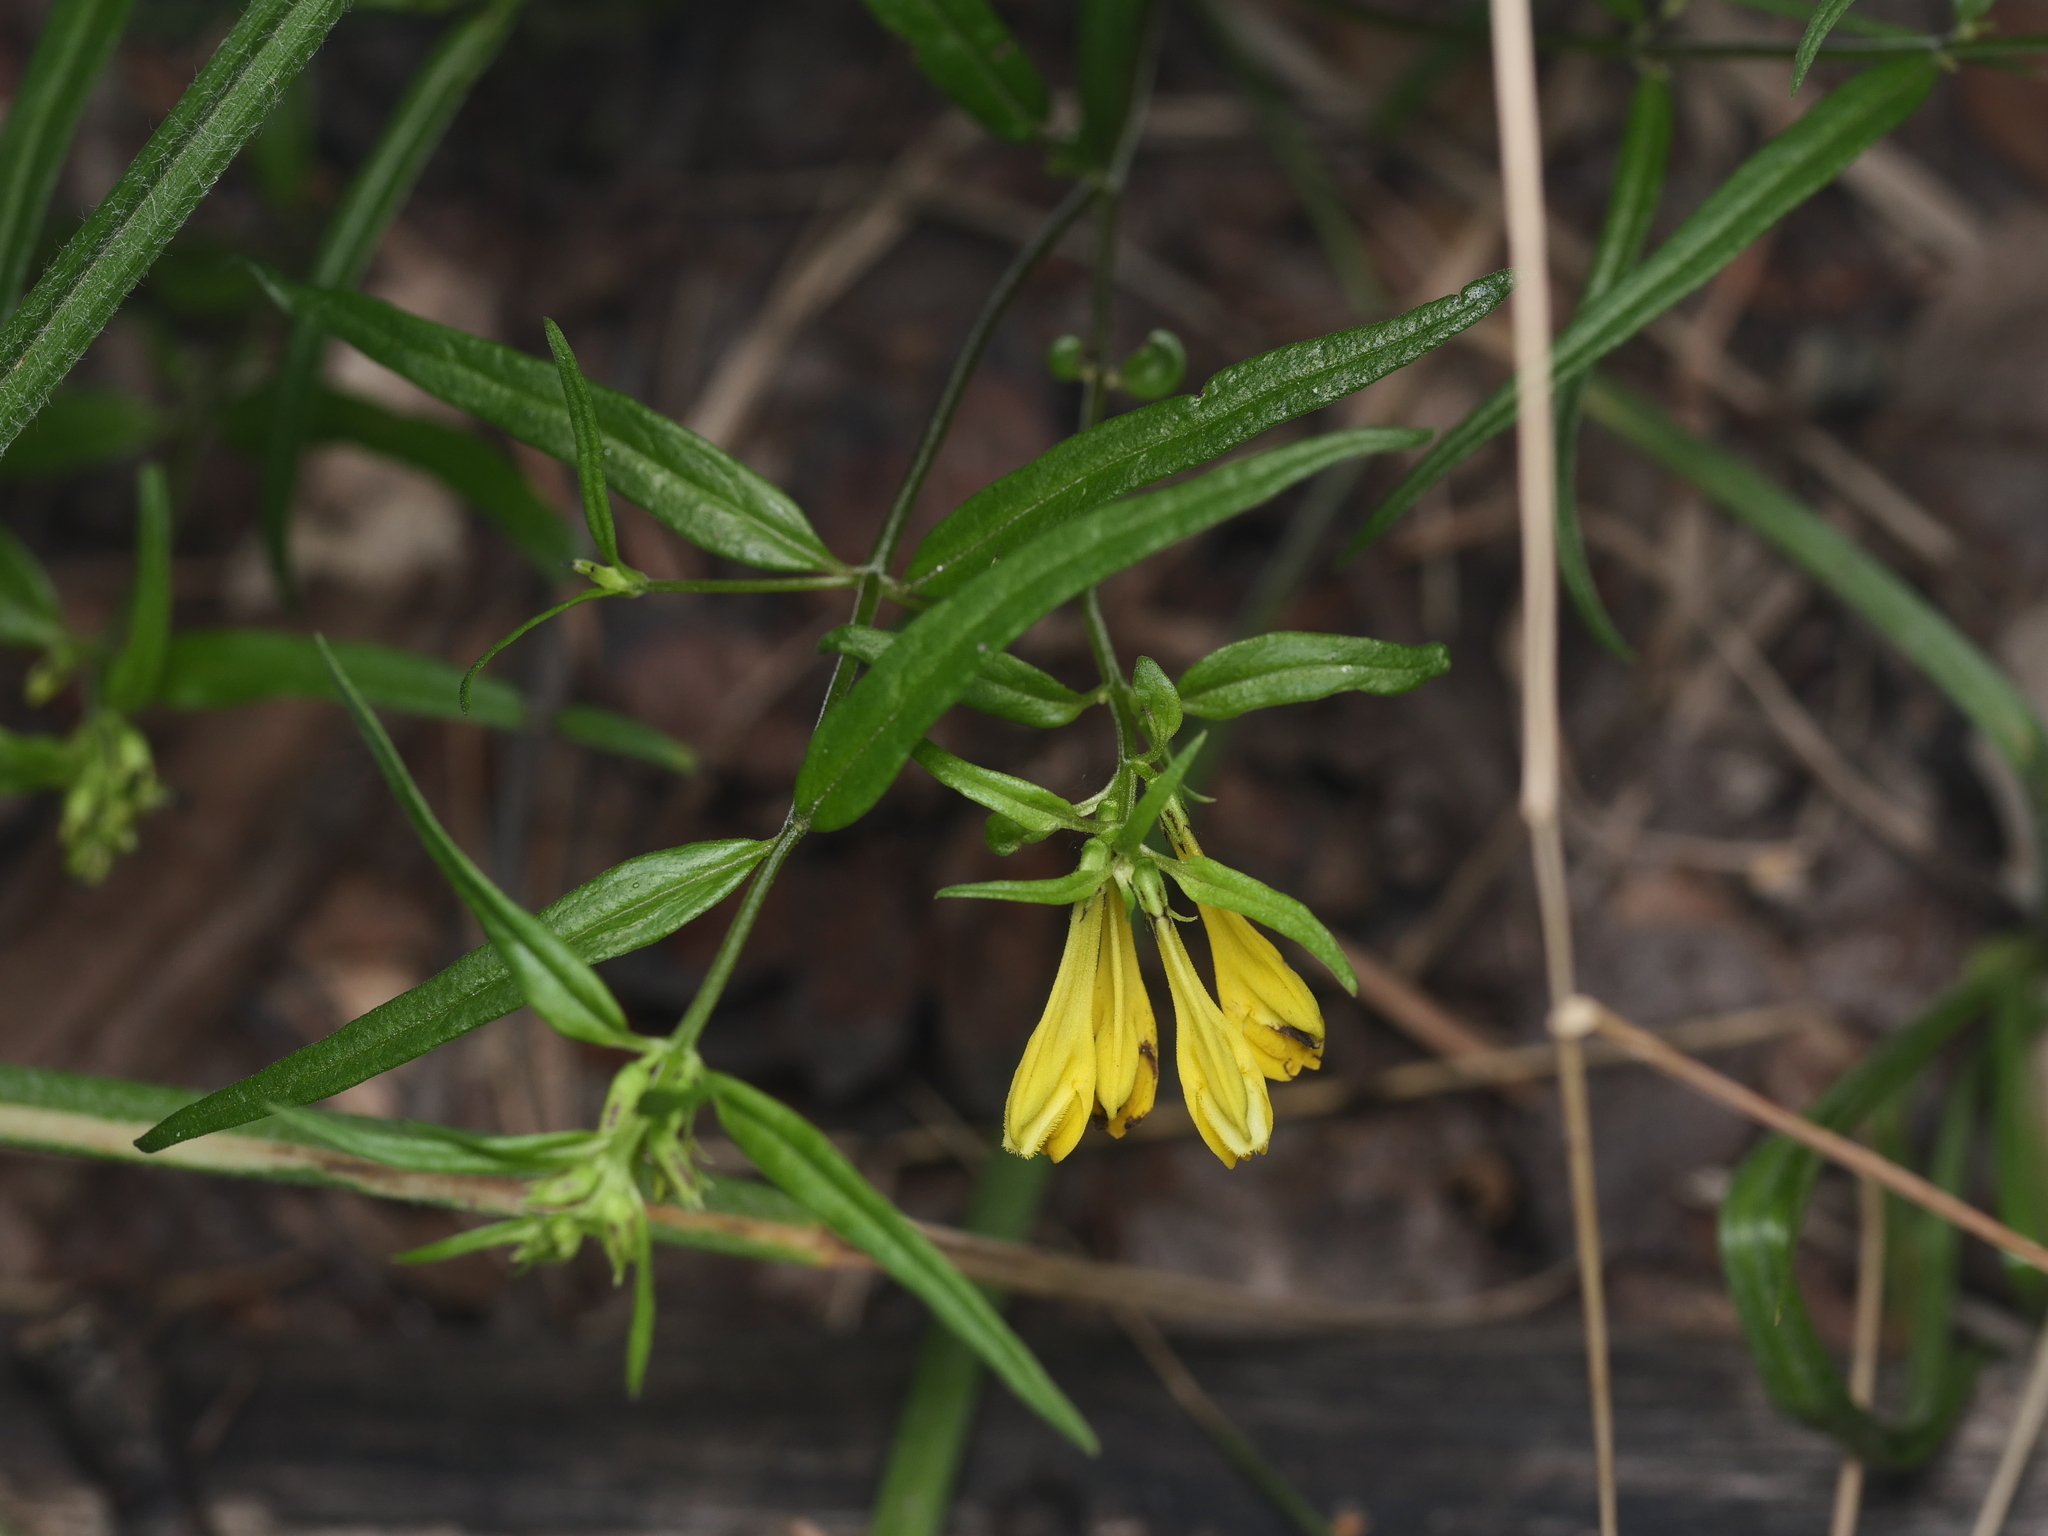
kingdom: Plantae
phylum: Tracheophyta
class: Magnoliopsida
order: Lamiales
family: Orobanchaceae
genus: Melampyrum
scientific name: Melampyrum pratense
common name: Common cow-wheat
